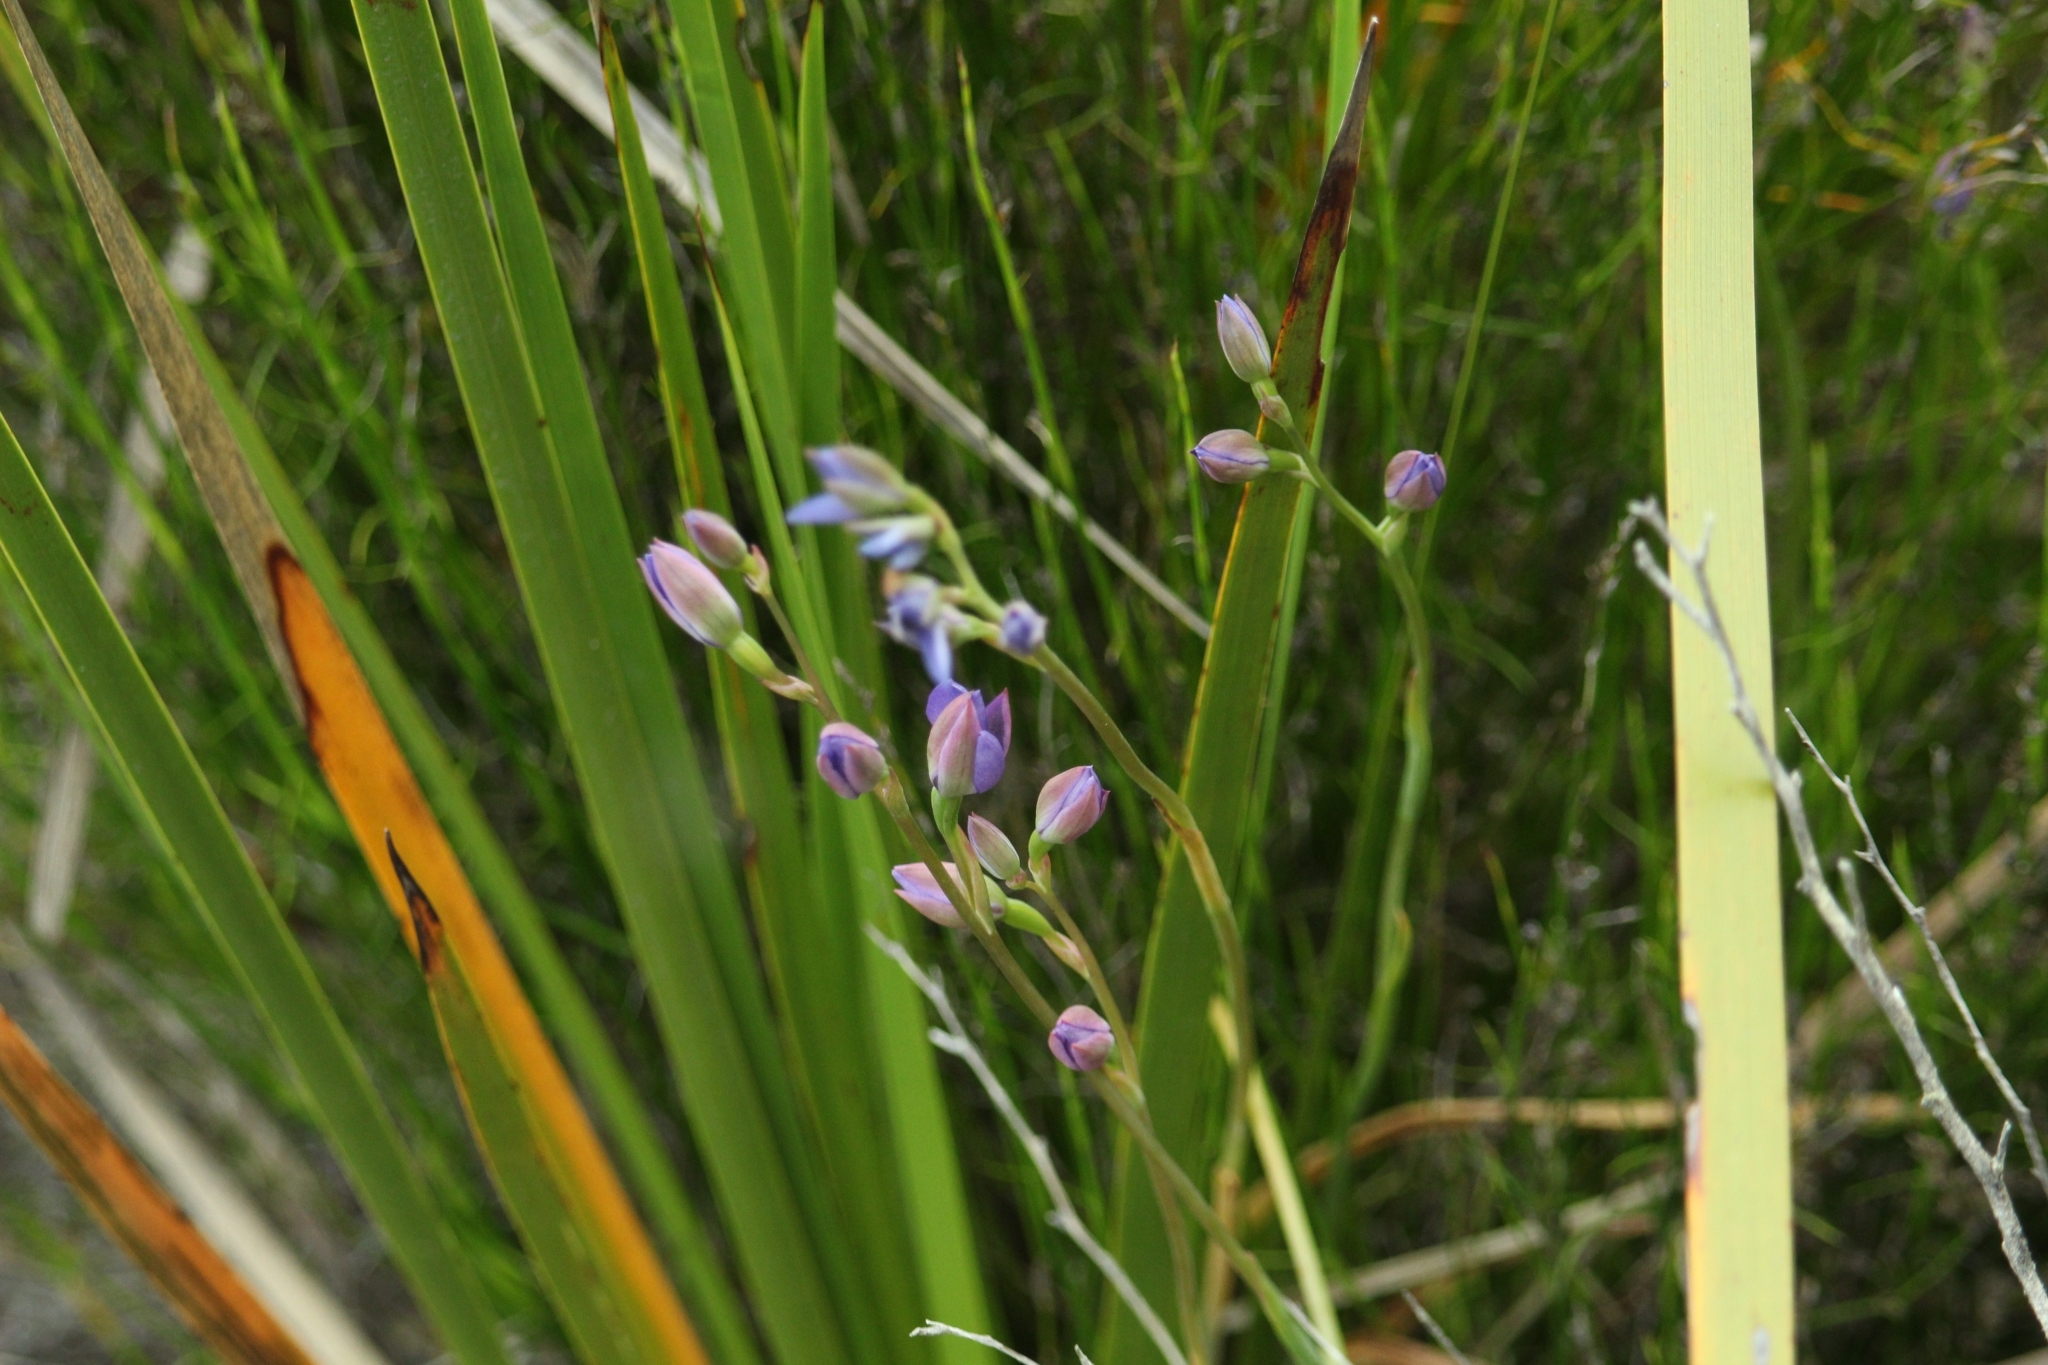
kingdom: Plantae
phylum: Tracheophyta
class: Liliopsida
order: Asparagales
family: Orchidaceae
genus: Thelymitra
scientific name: Thelymitra cornicina
